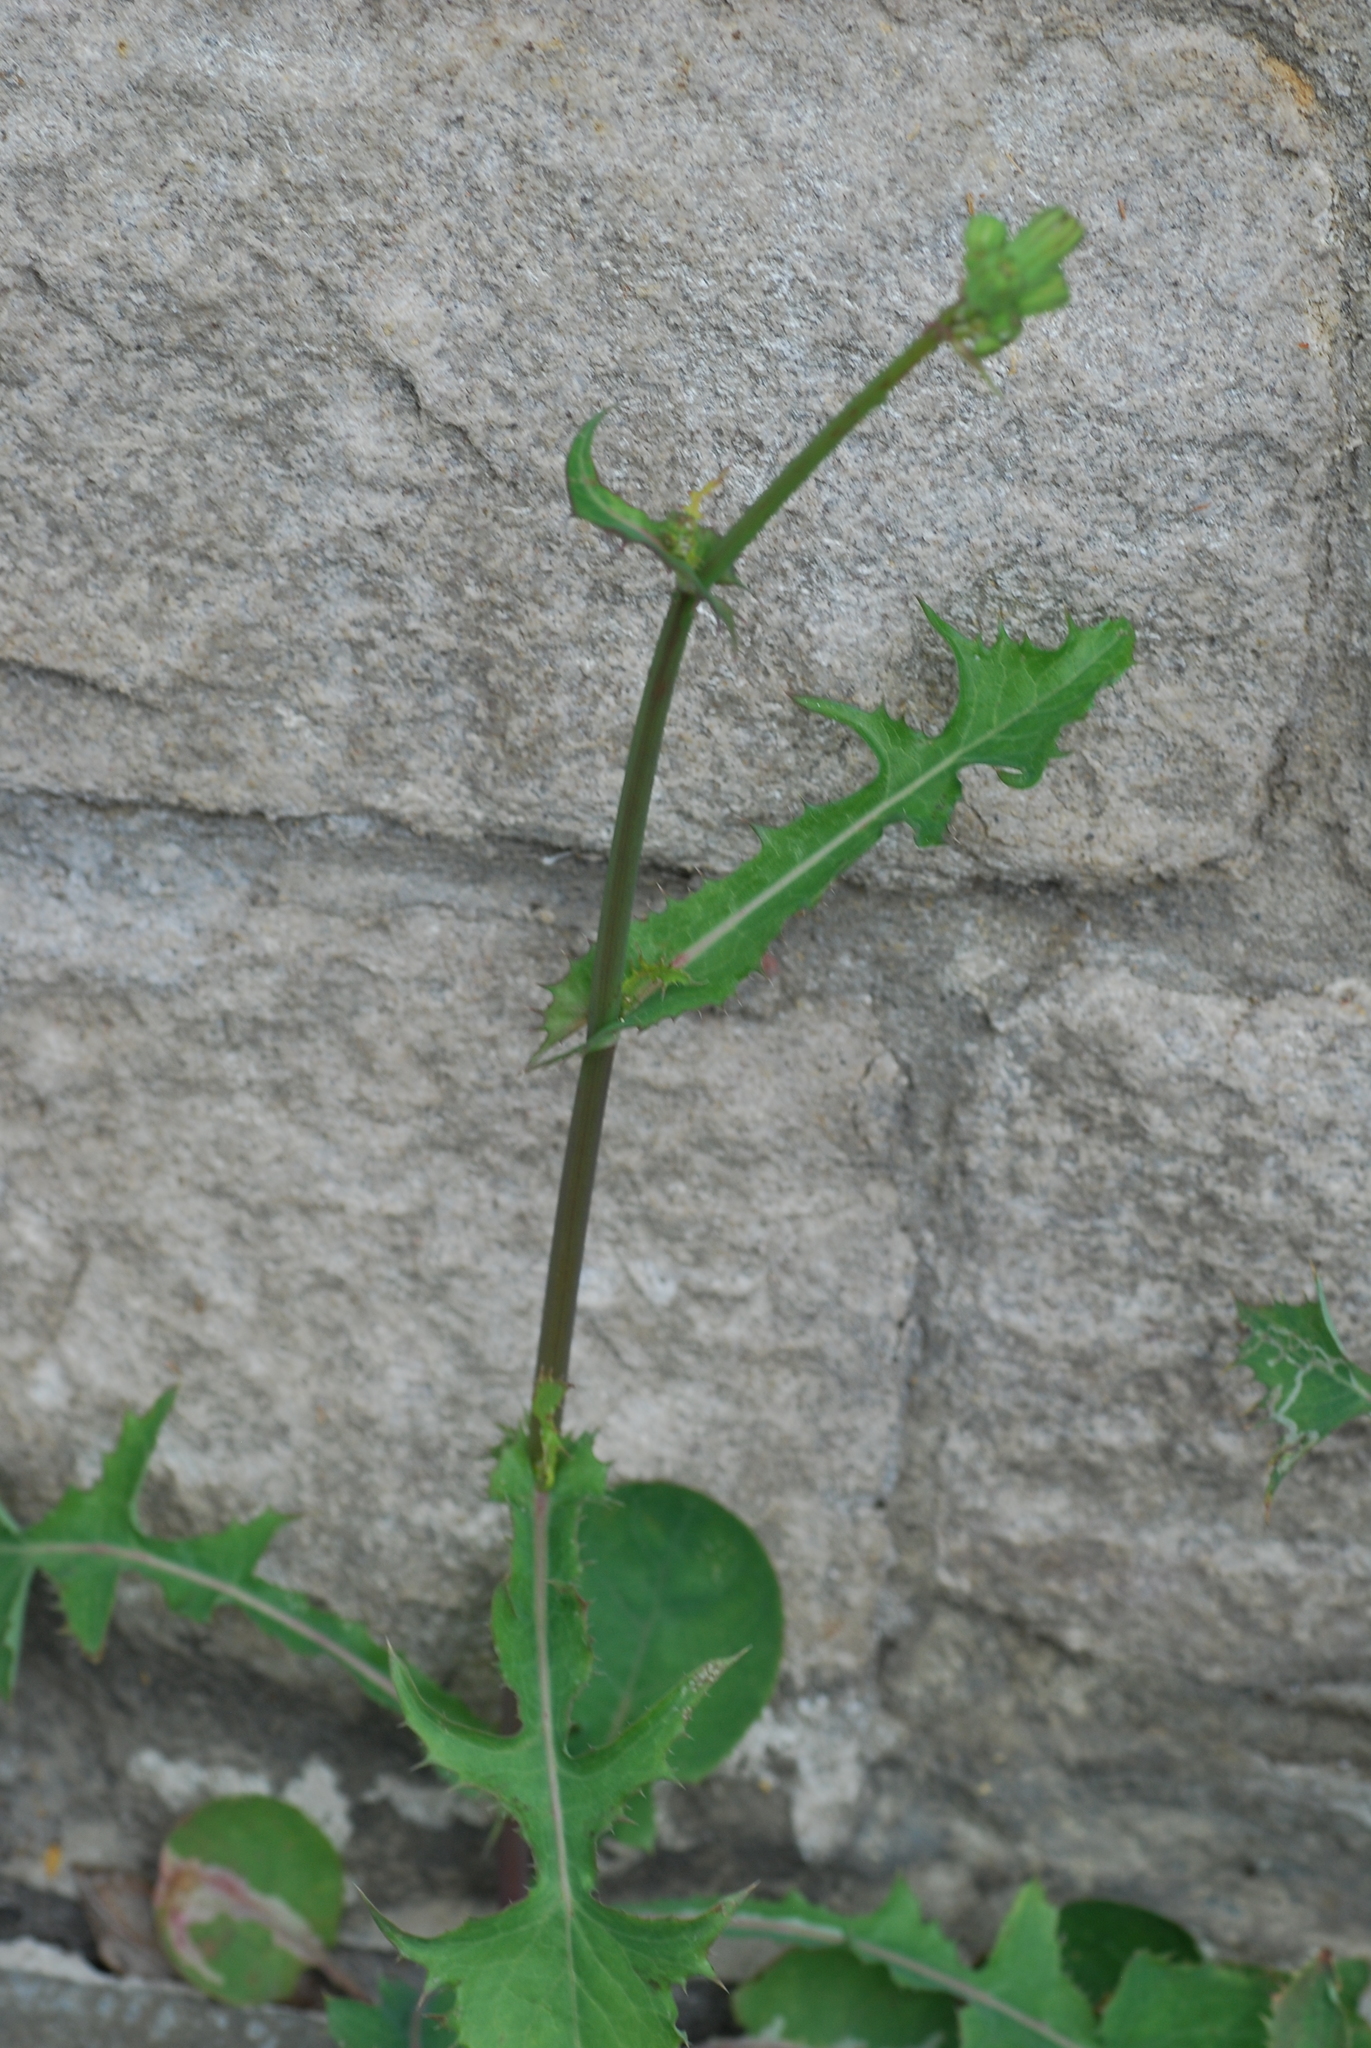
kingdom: Plantae
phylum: Tracheophyta
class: Magnoliopsida
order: Asterales
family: Asteraceae
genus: Sonchus
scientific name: Sonchus oleraceus
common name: Common sowthistle
